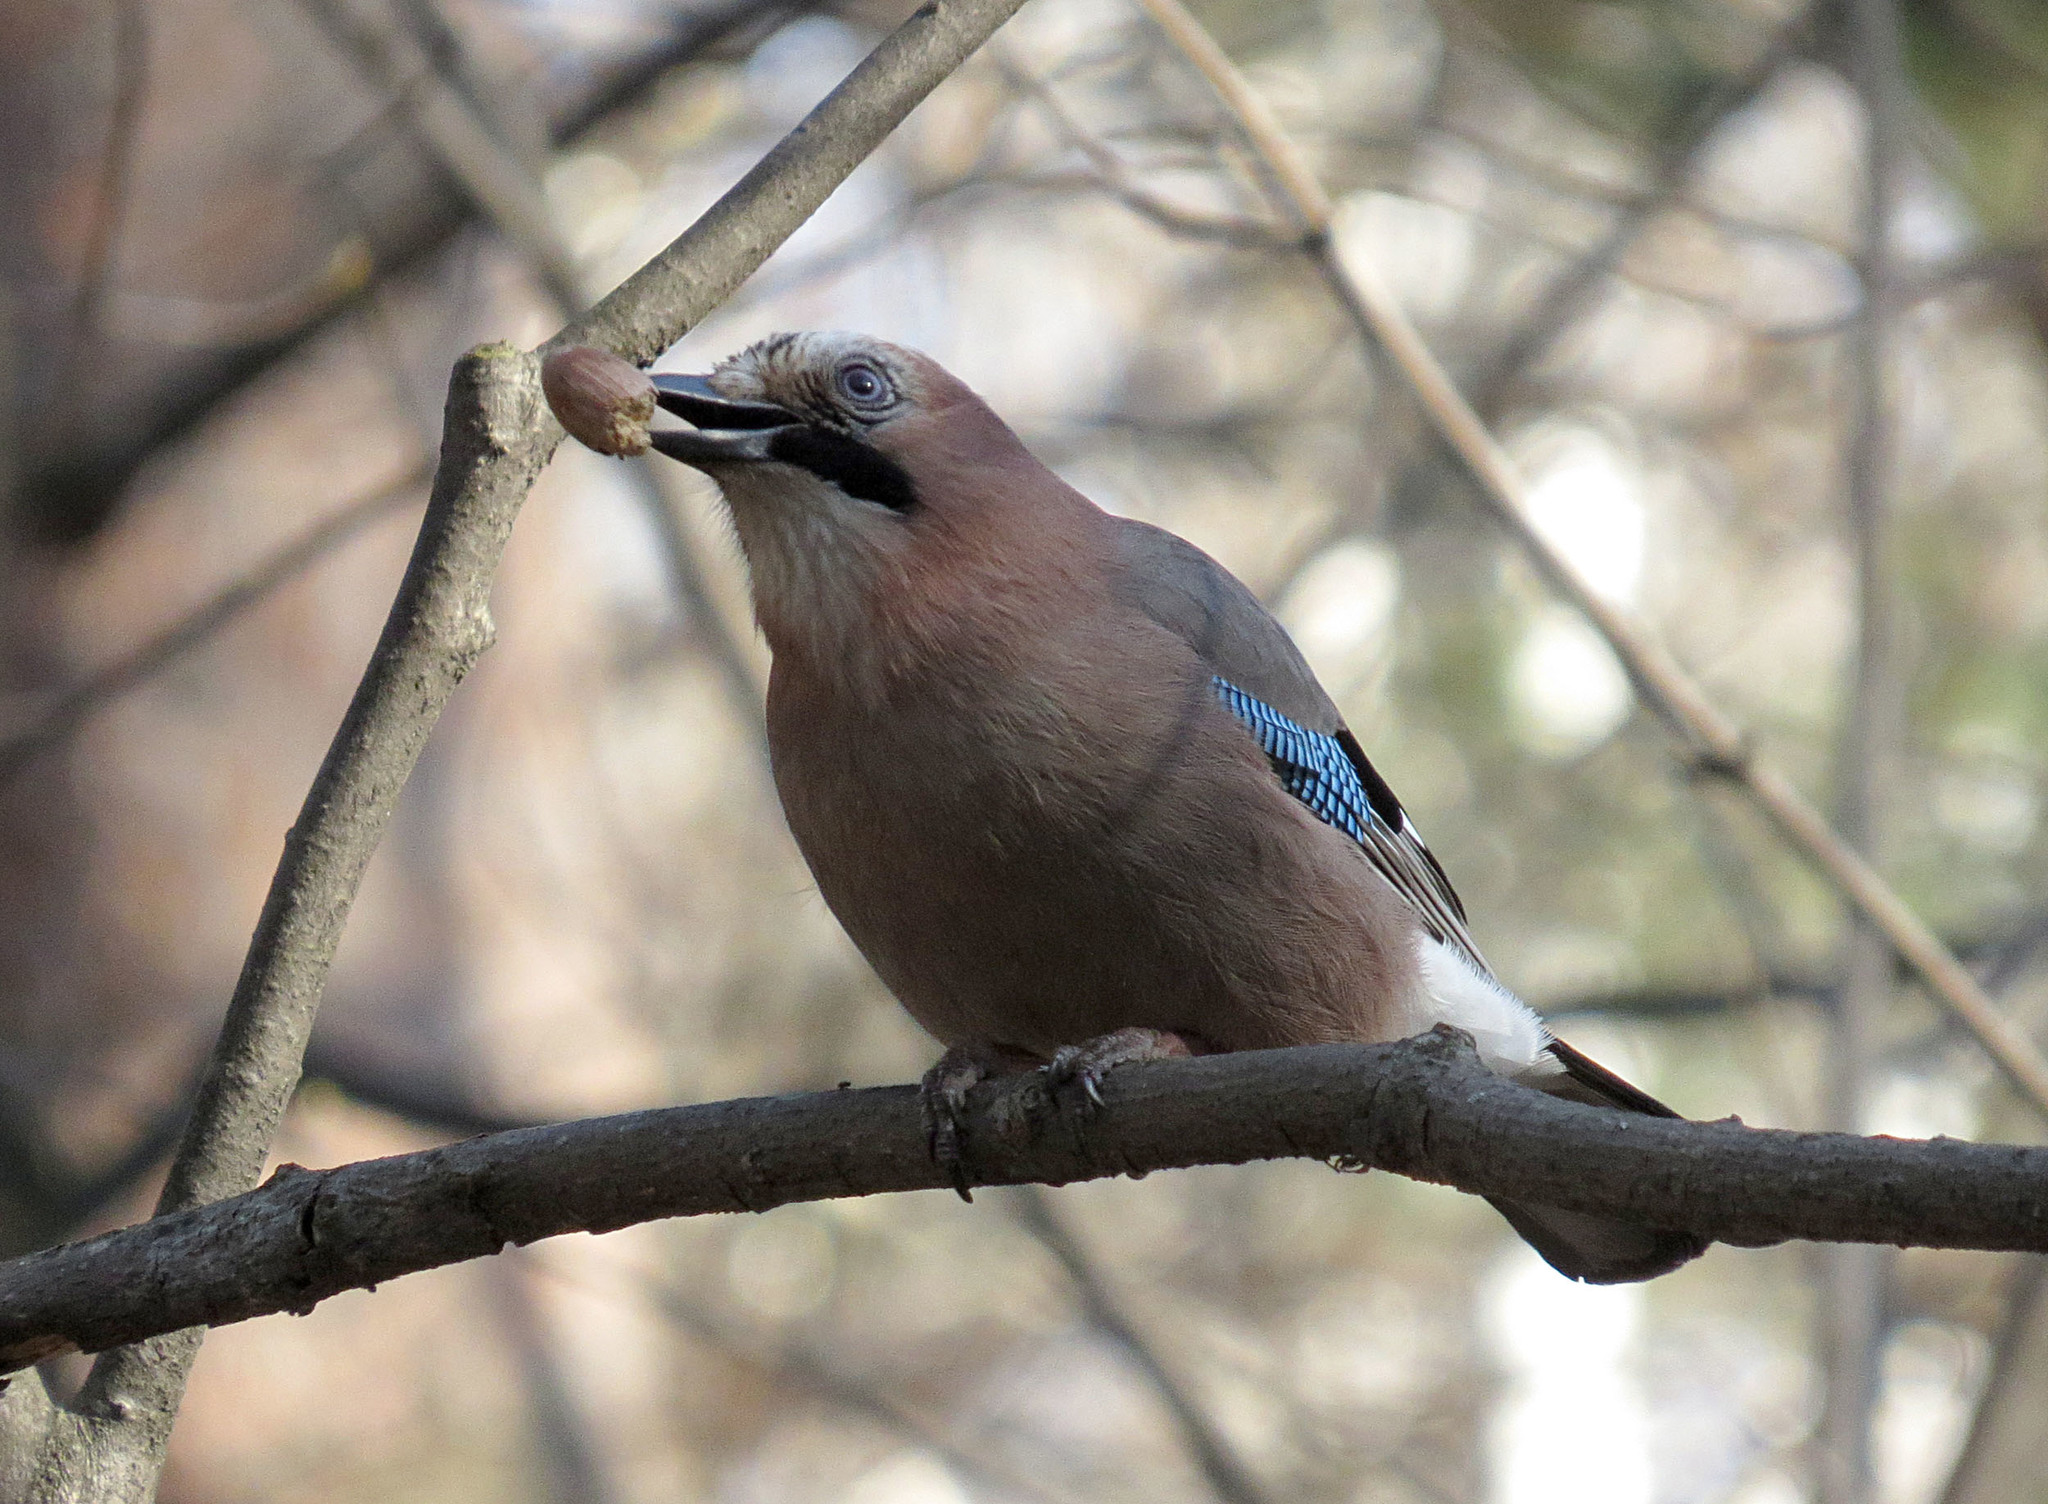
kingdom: Animalia
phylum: Chordata
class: Aves
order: Passeriformes
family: Corvidae
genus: Garrulus
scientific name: Garrulus glandarius
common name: Eurasian jay
